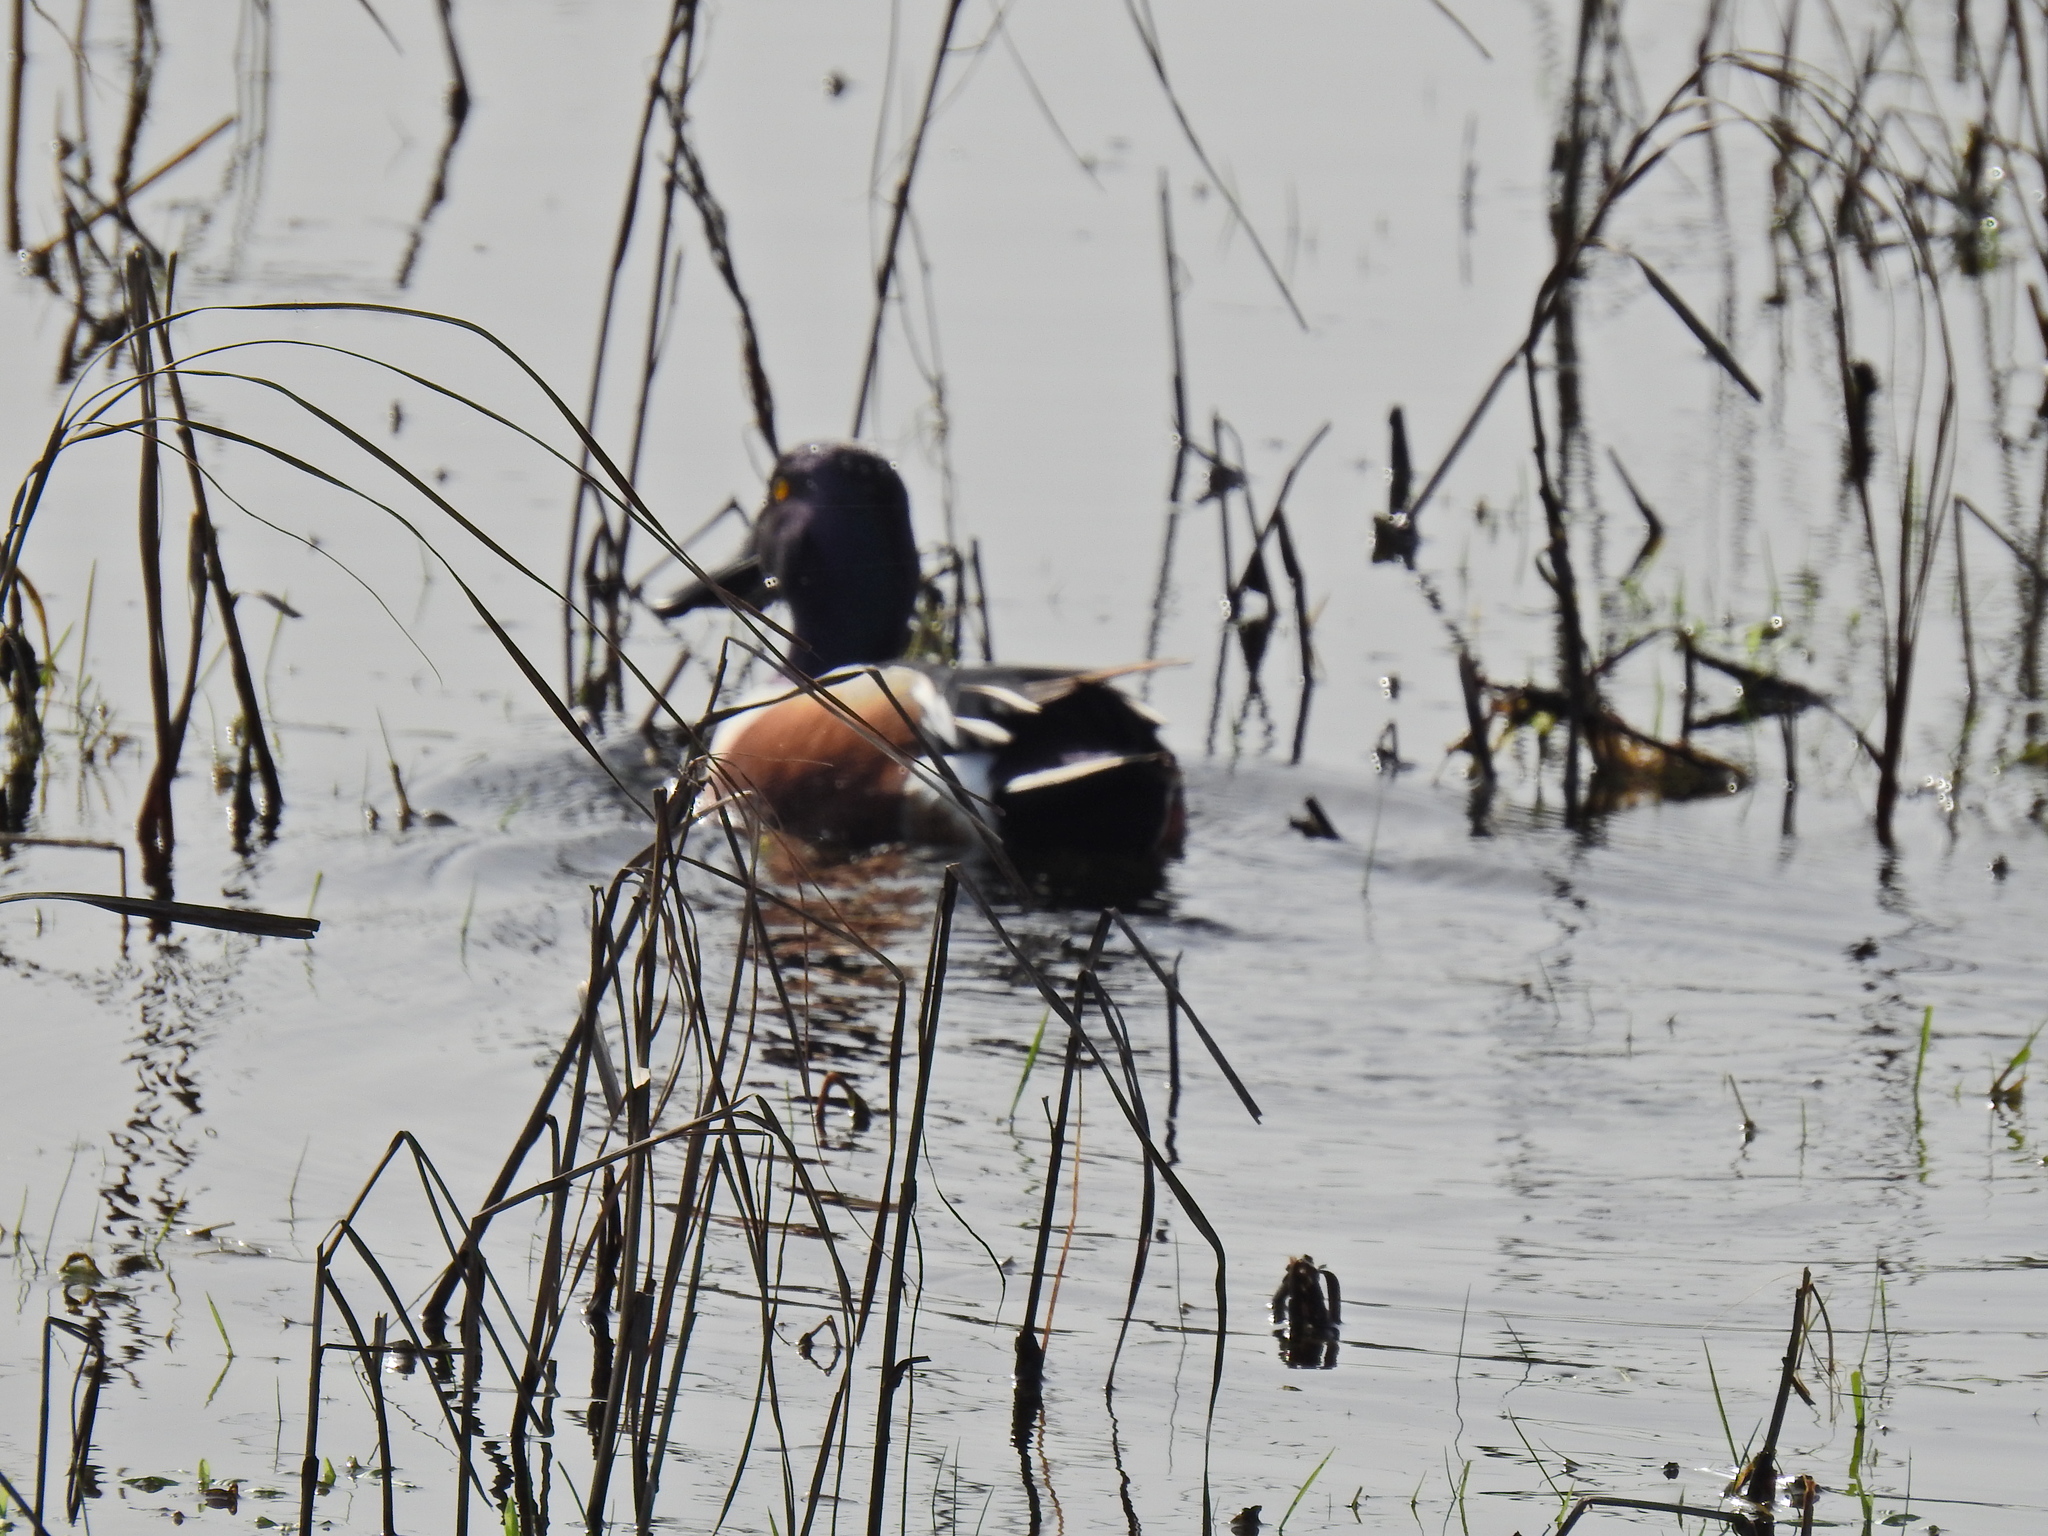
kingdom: Animalia
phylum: Chordata
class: Aves
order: Anseriformes
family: Anatidae
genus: Spatula
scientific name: Spatula clypeata
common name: Northern shoveler
